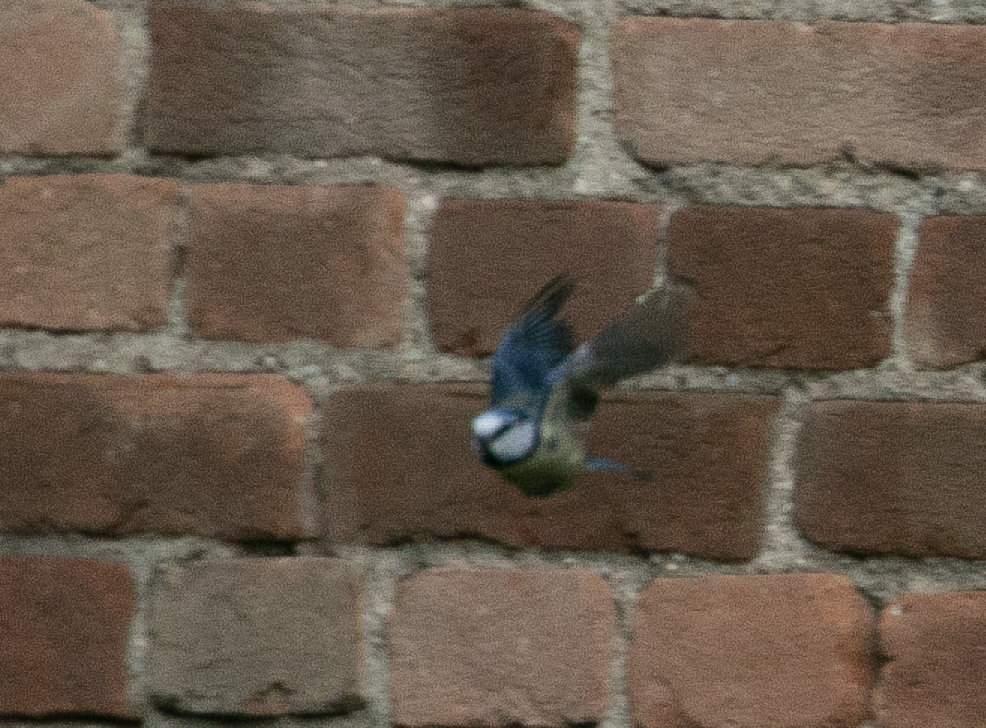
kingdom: Animalia
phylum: Chordata
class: Aves
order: Passeriformes
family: Paridae
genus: Cyanistes
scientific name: Cyanistes caeruleus
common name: Eurasian blue tit
